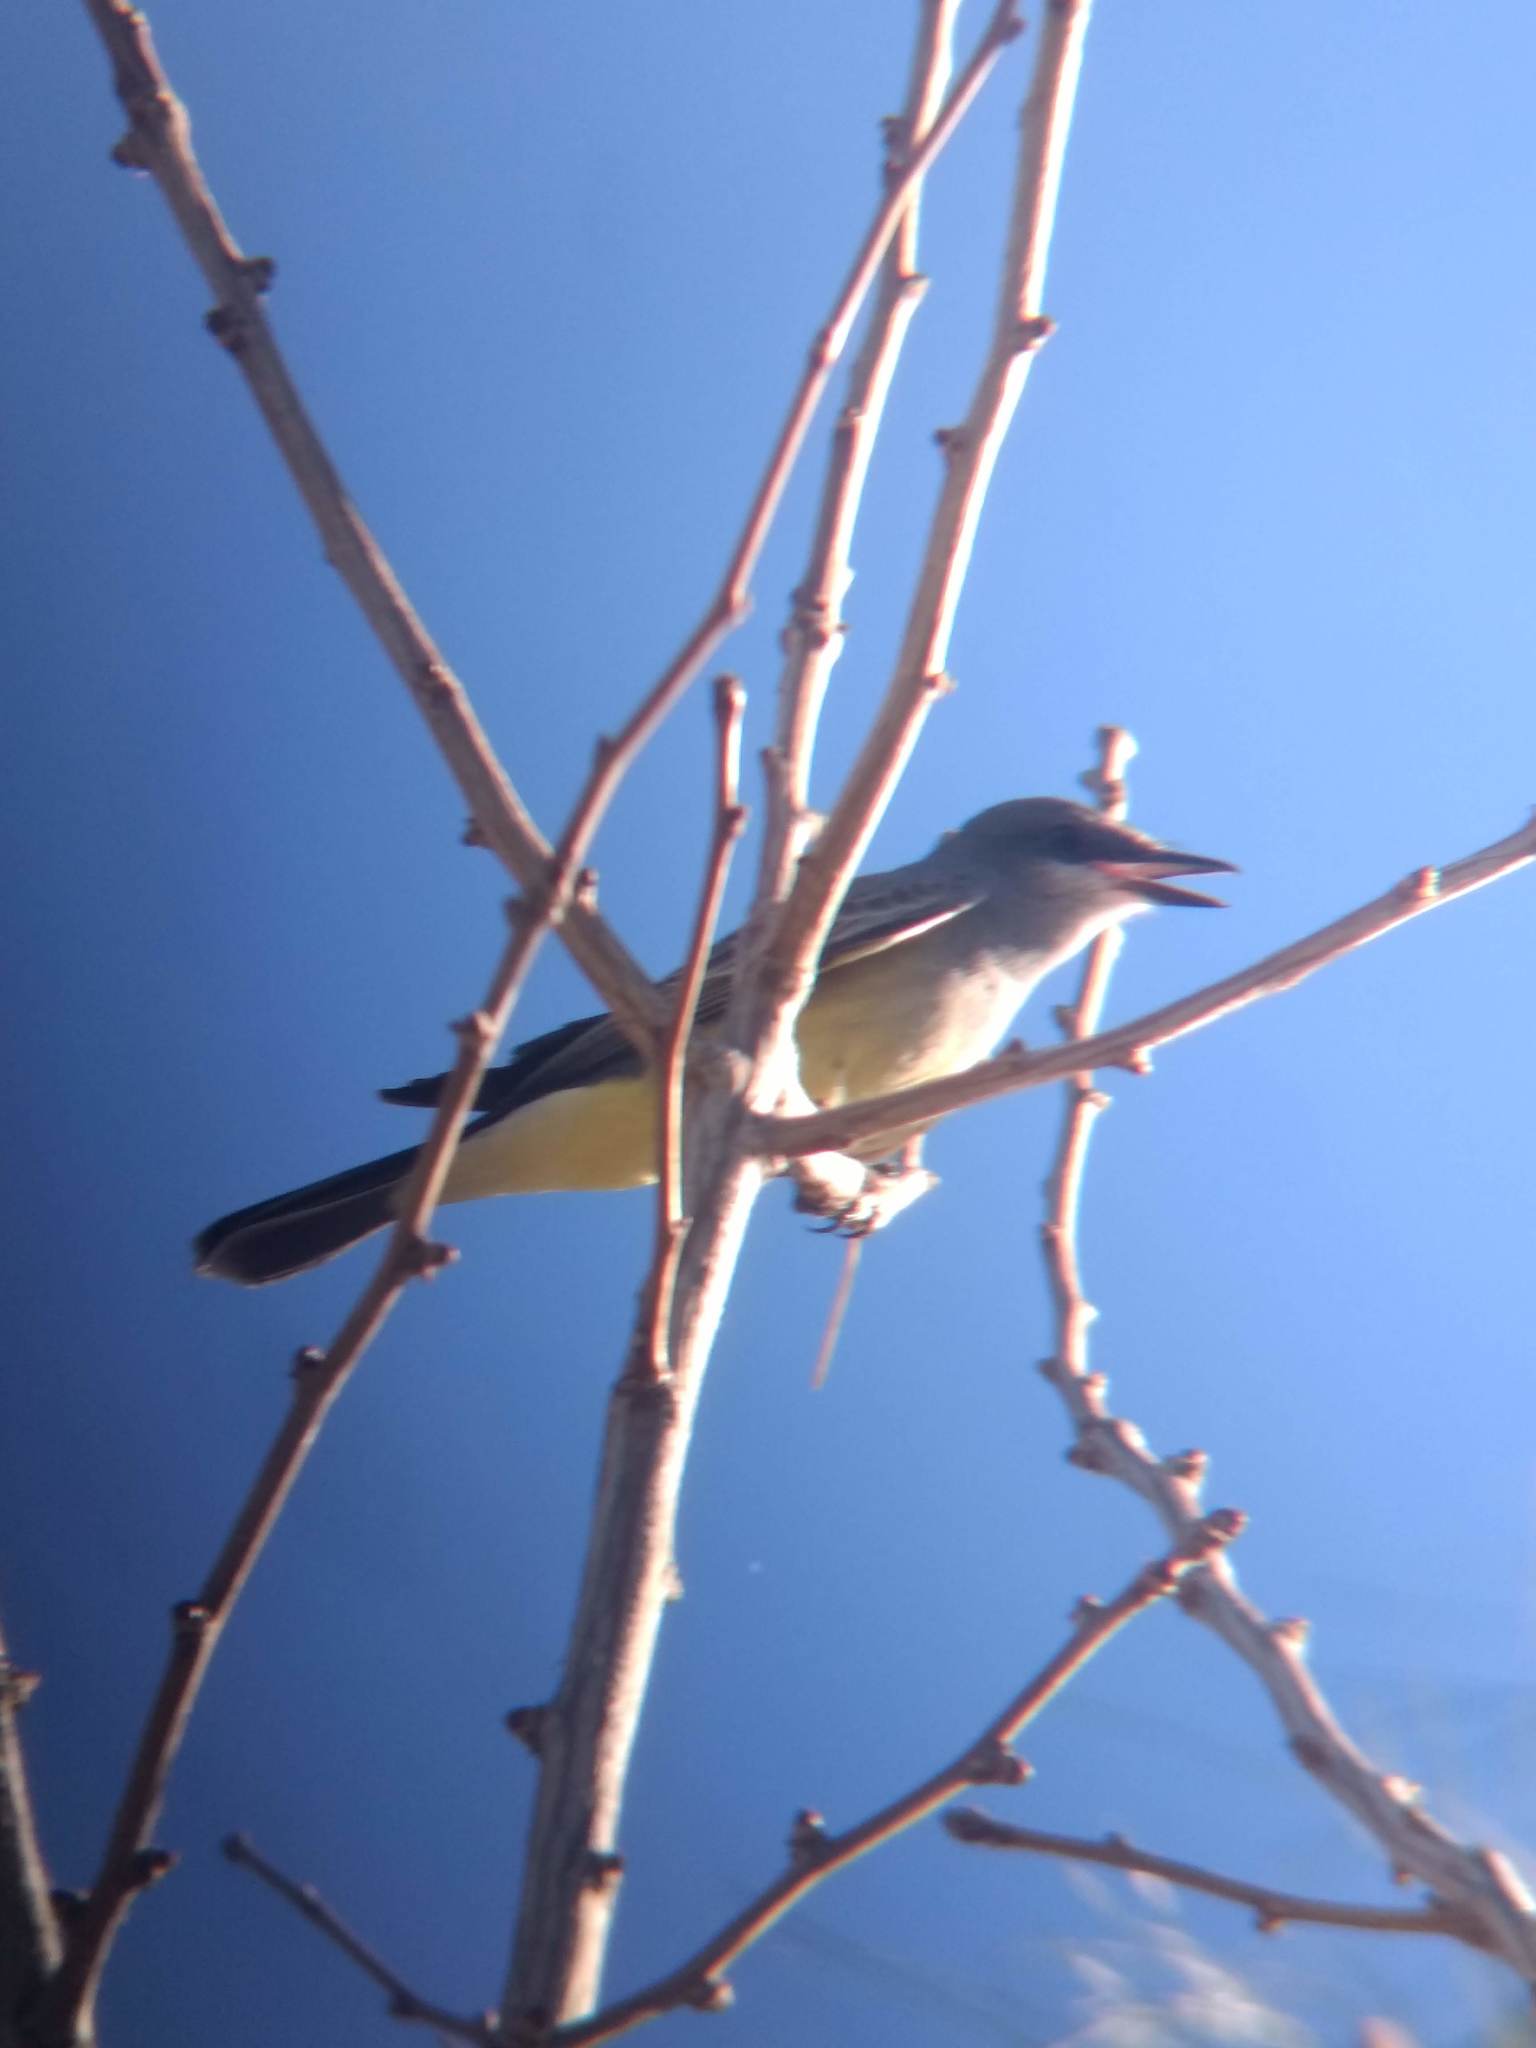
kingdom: Animalia
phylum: Chordata
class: Aves
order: Passeriformes
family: Tyrannidae
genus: Tyrannus
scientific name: Tyrannus vociferans
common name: Cassin's kingbird
